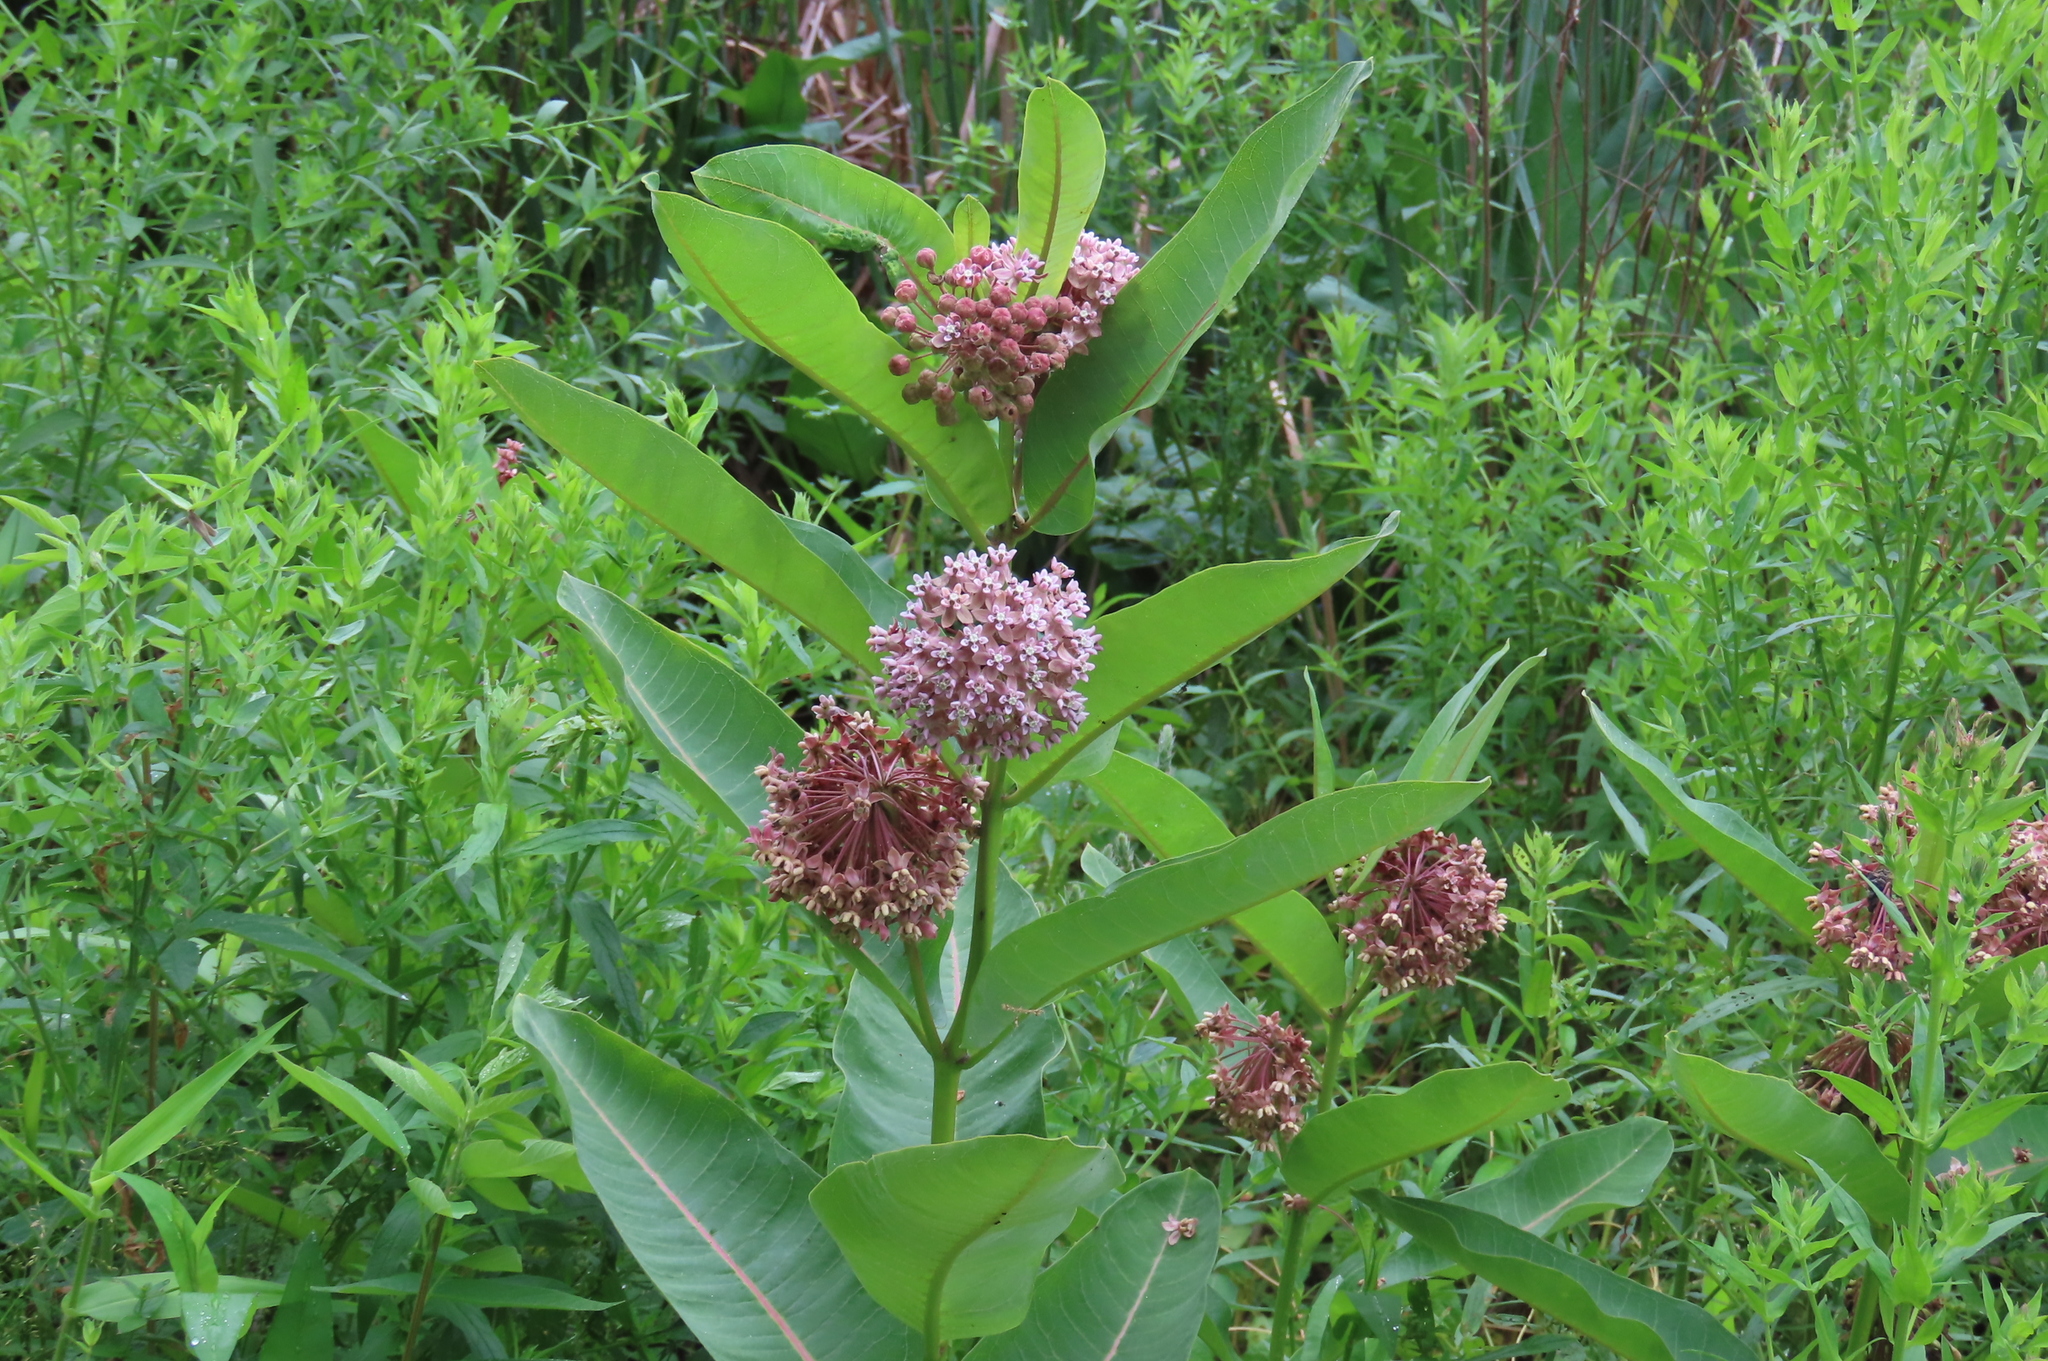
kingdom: Plantae
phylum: Tracheophyta
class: Magnoliopsida
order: Gentianales
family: Apocynaceae
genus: Asclepias
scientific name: Asclepias syriaca
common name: Common milkweed
